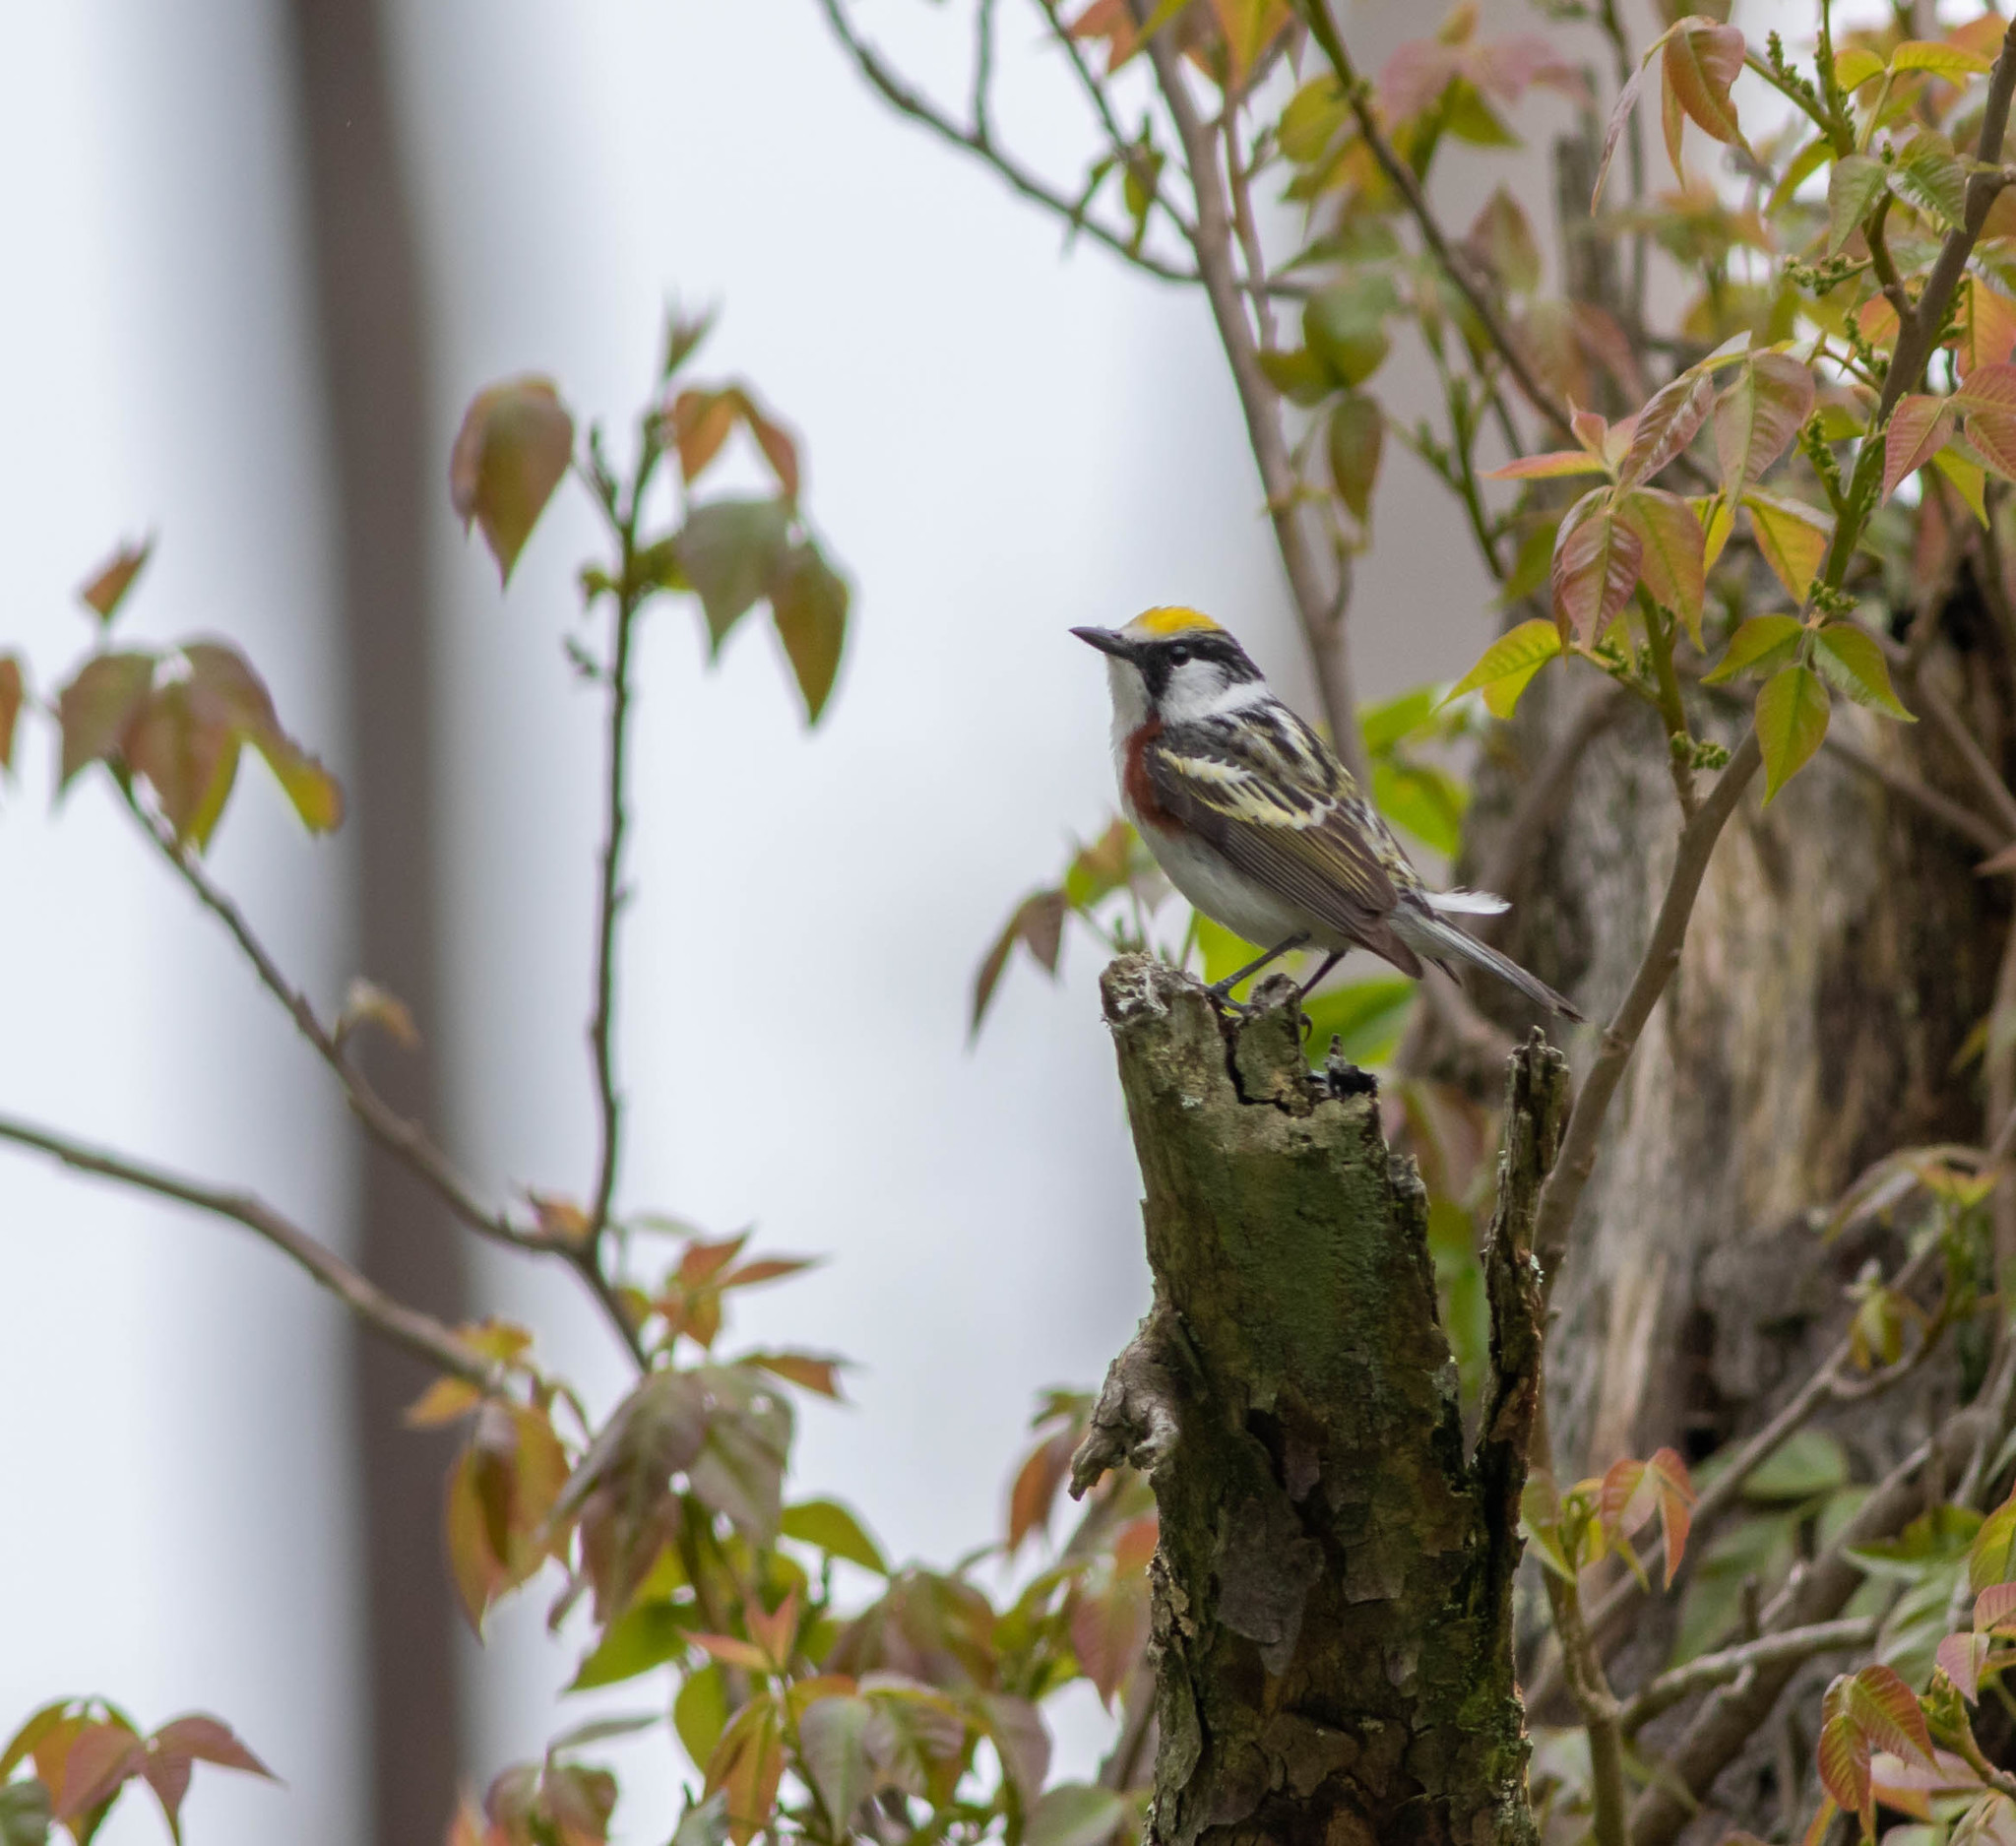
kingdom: Animalia
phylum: Chordata
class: Aves
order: Passeriformes
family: Parulidae
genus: Setophaga
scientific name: Setophaga pensylvanica
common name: Chestnut-sided warbler
